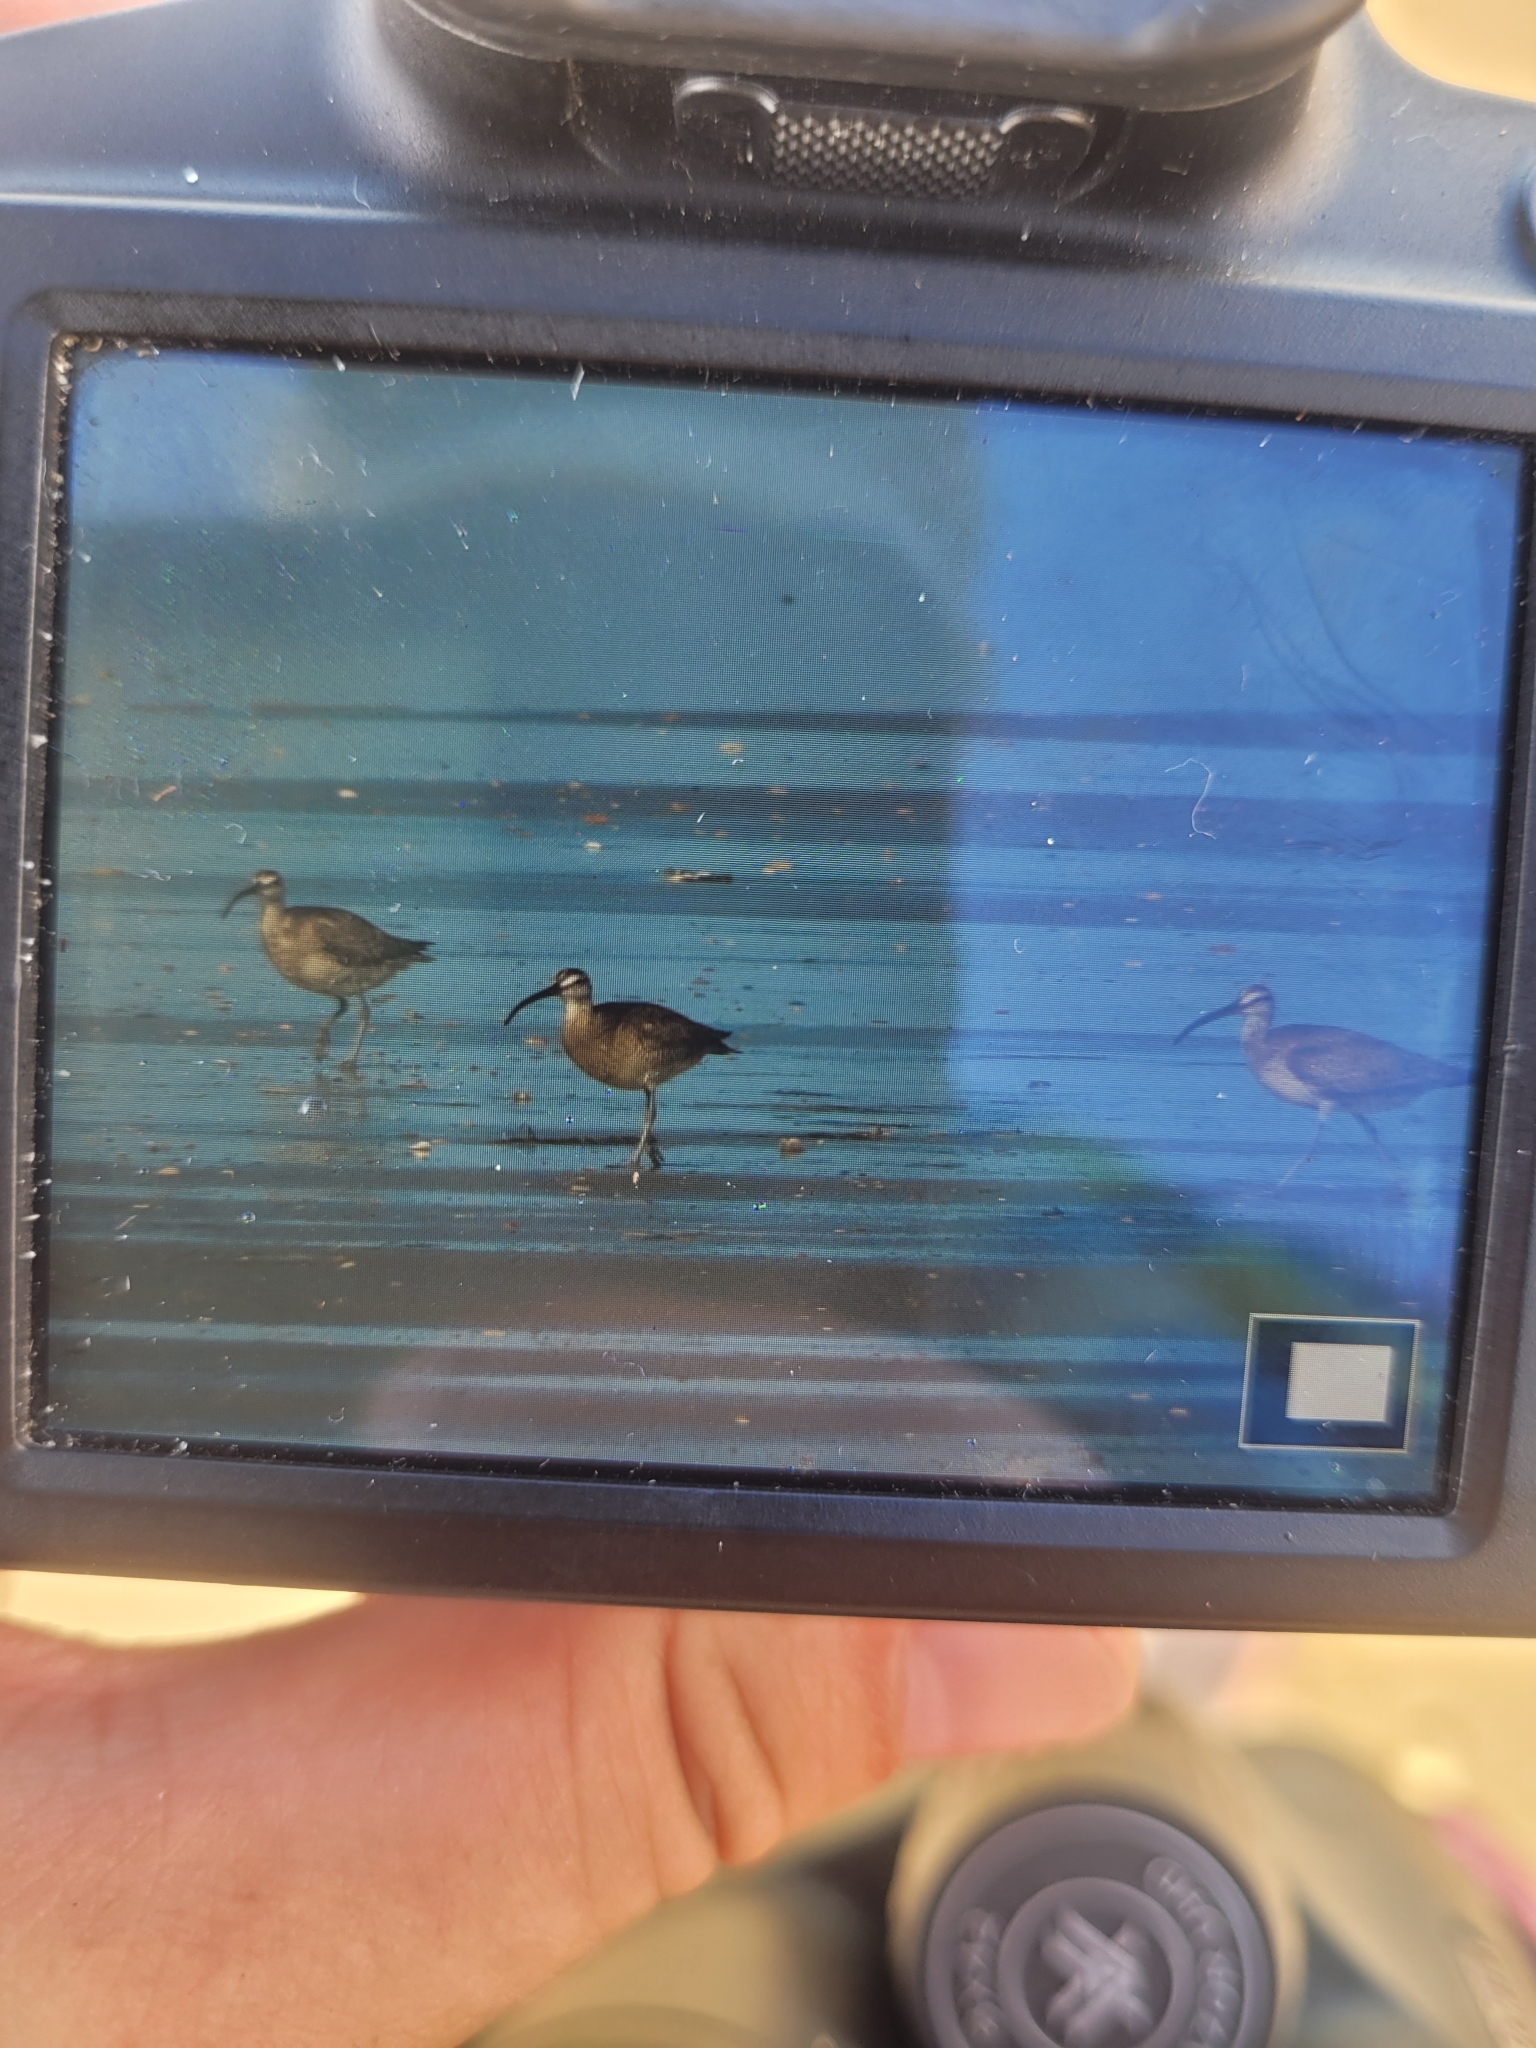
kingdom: Animalia
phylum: Chordata
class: Aves
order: Charadriiformes
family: Scolopacidae
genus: Numenius
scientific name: Numenius phaeopus
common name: Whimbrel
